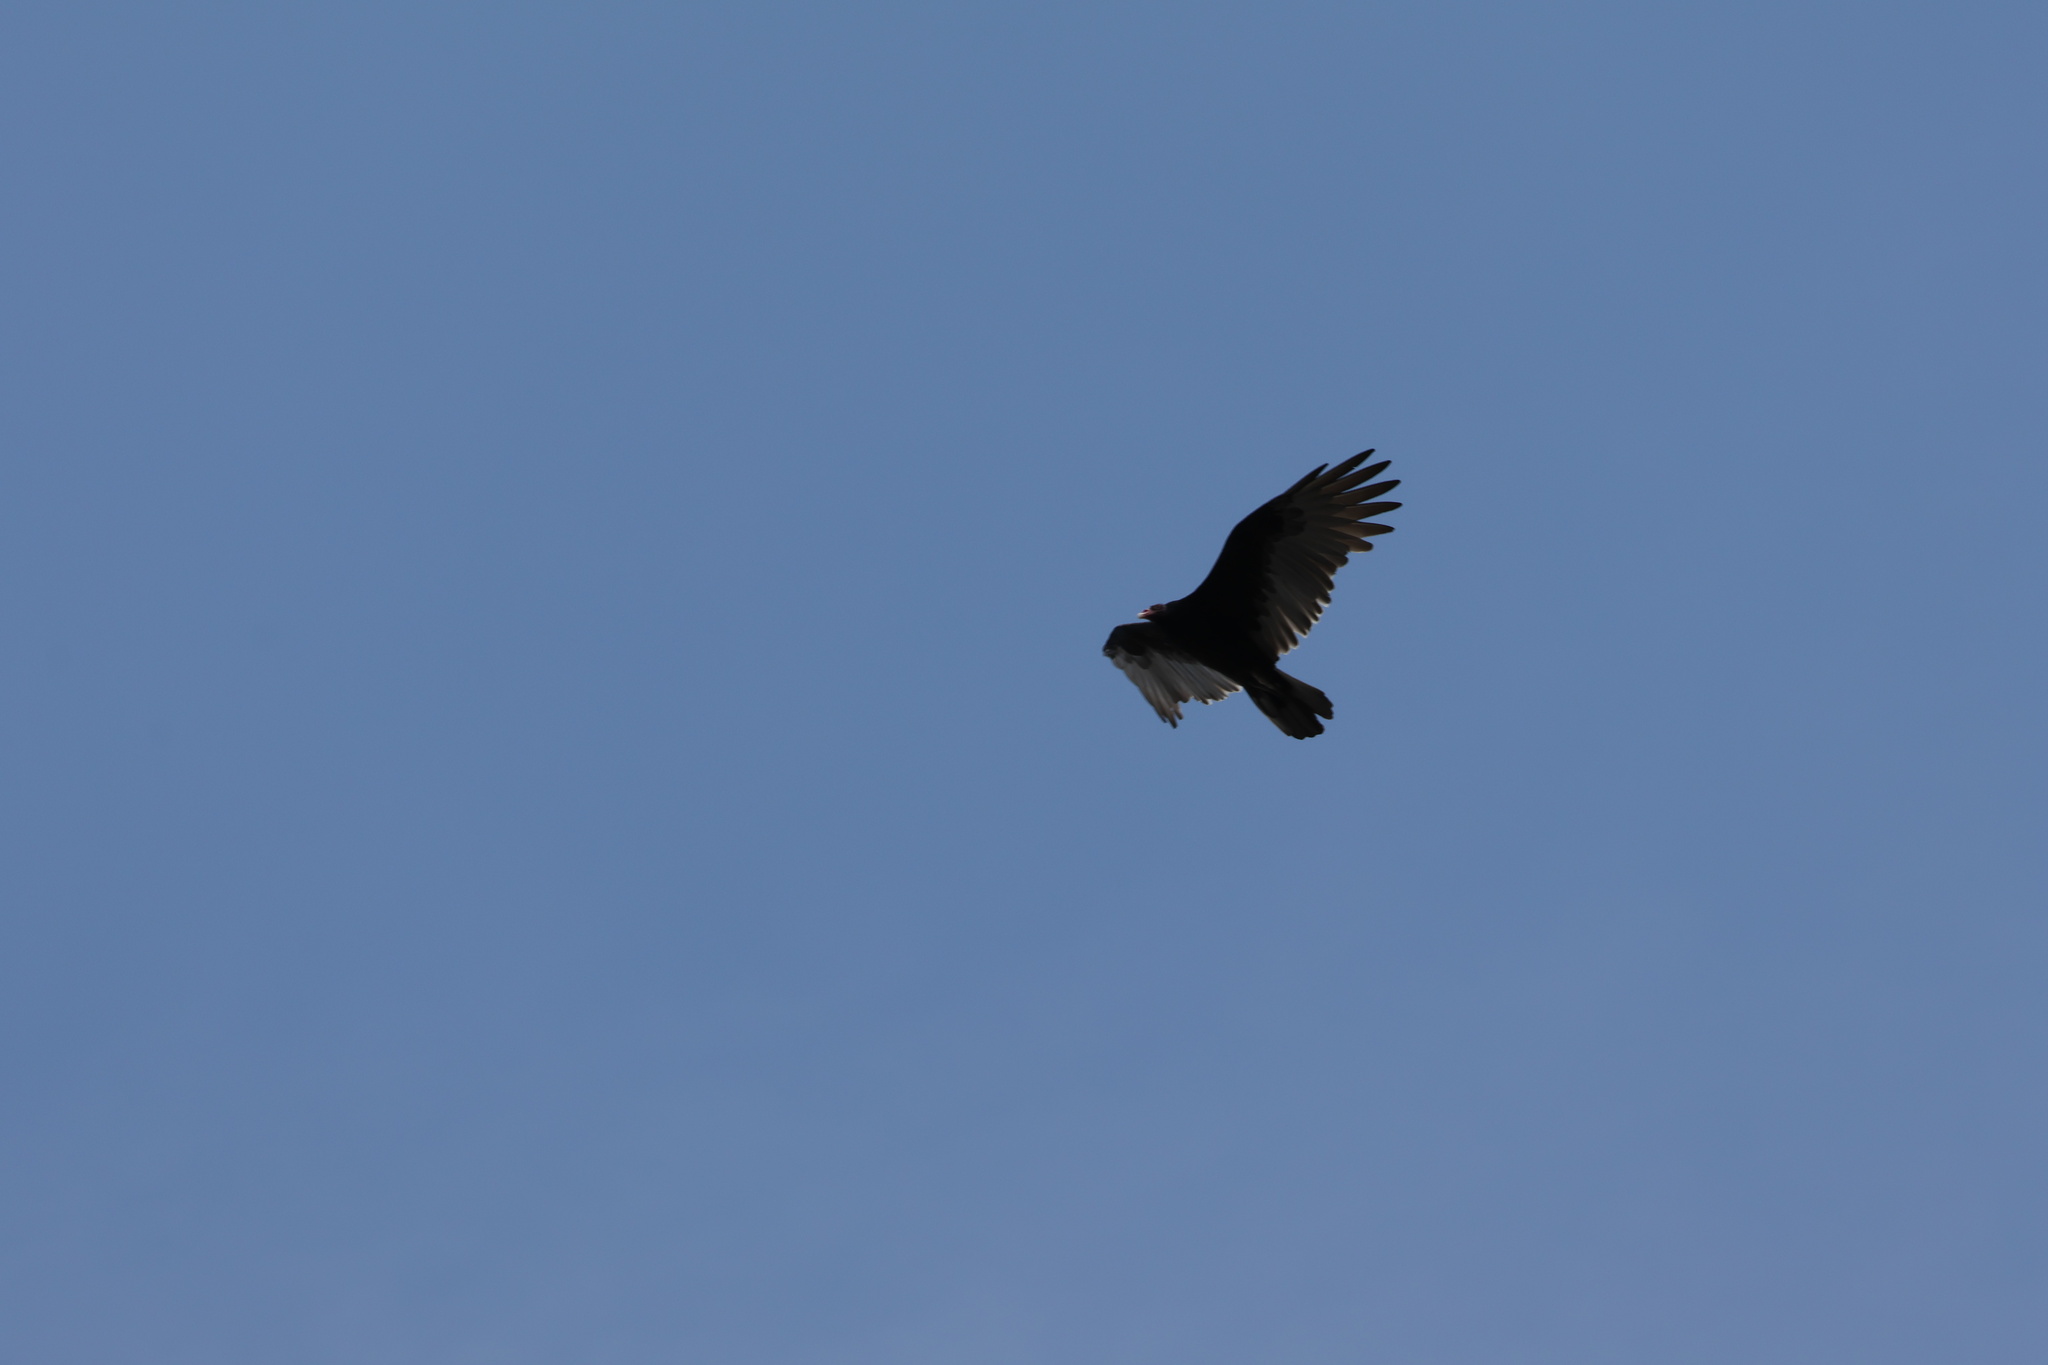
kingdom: Animalia
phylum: Chordata
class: Aves
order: Accipitriformes
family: Cathartidae
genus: Cathartes
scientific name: Cathartes aura
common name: Turkey vulture
